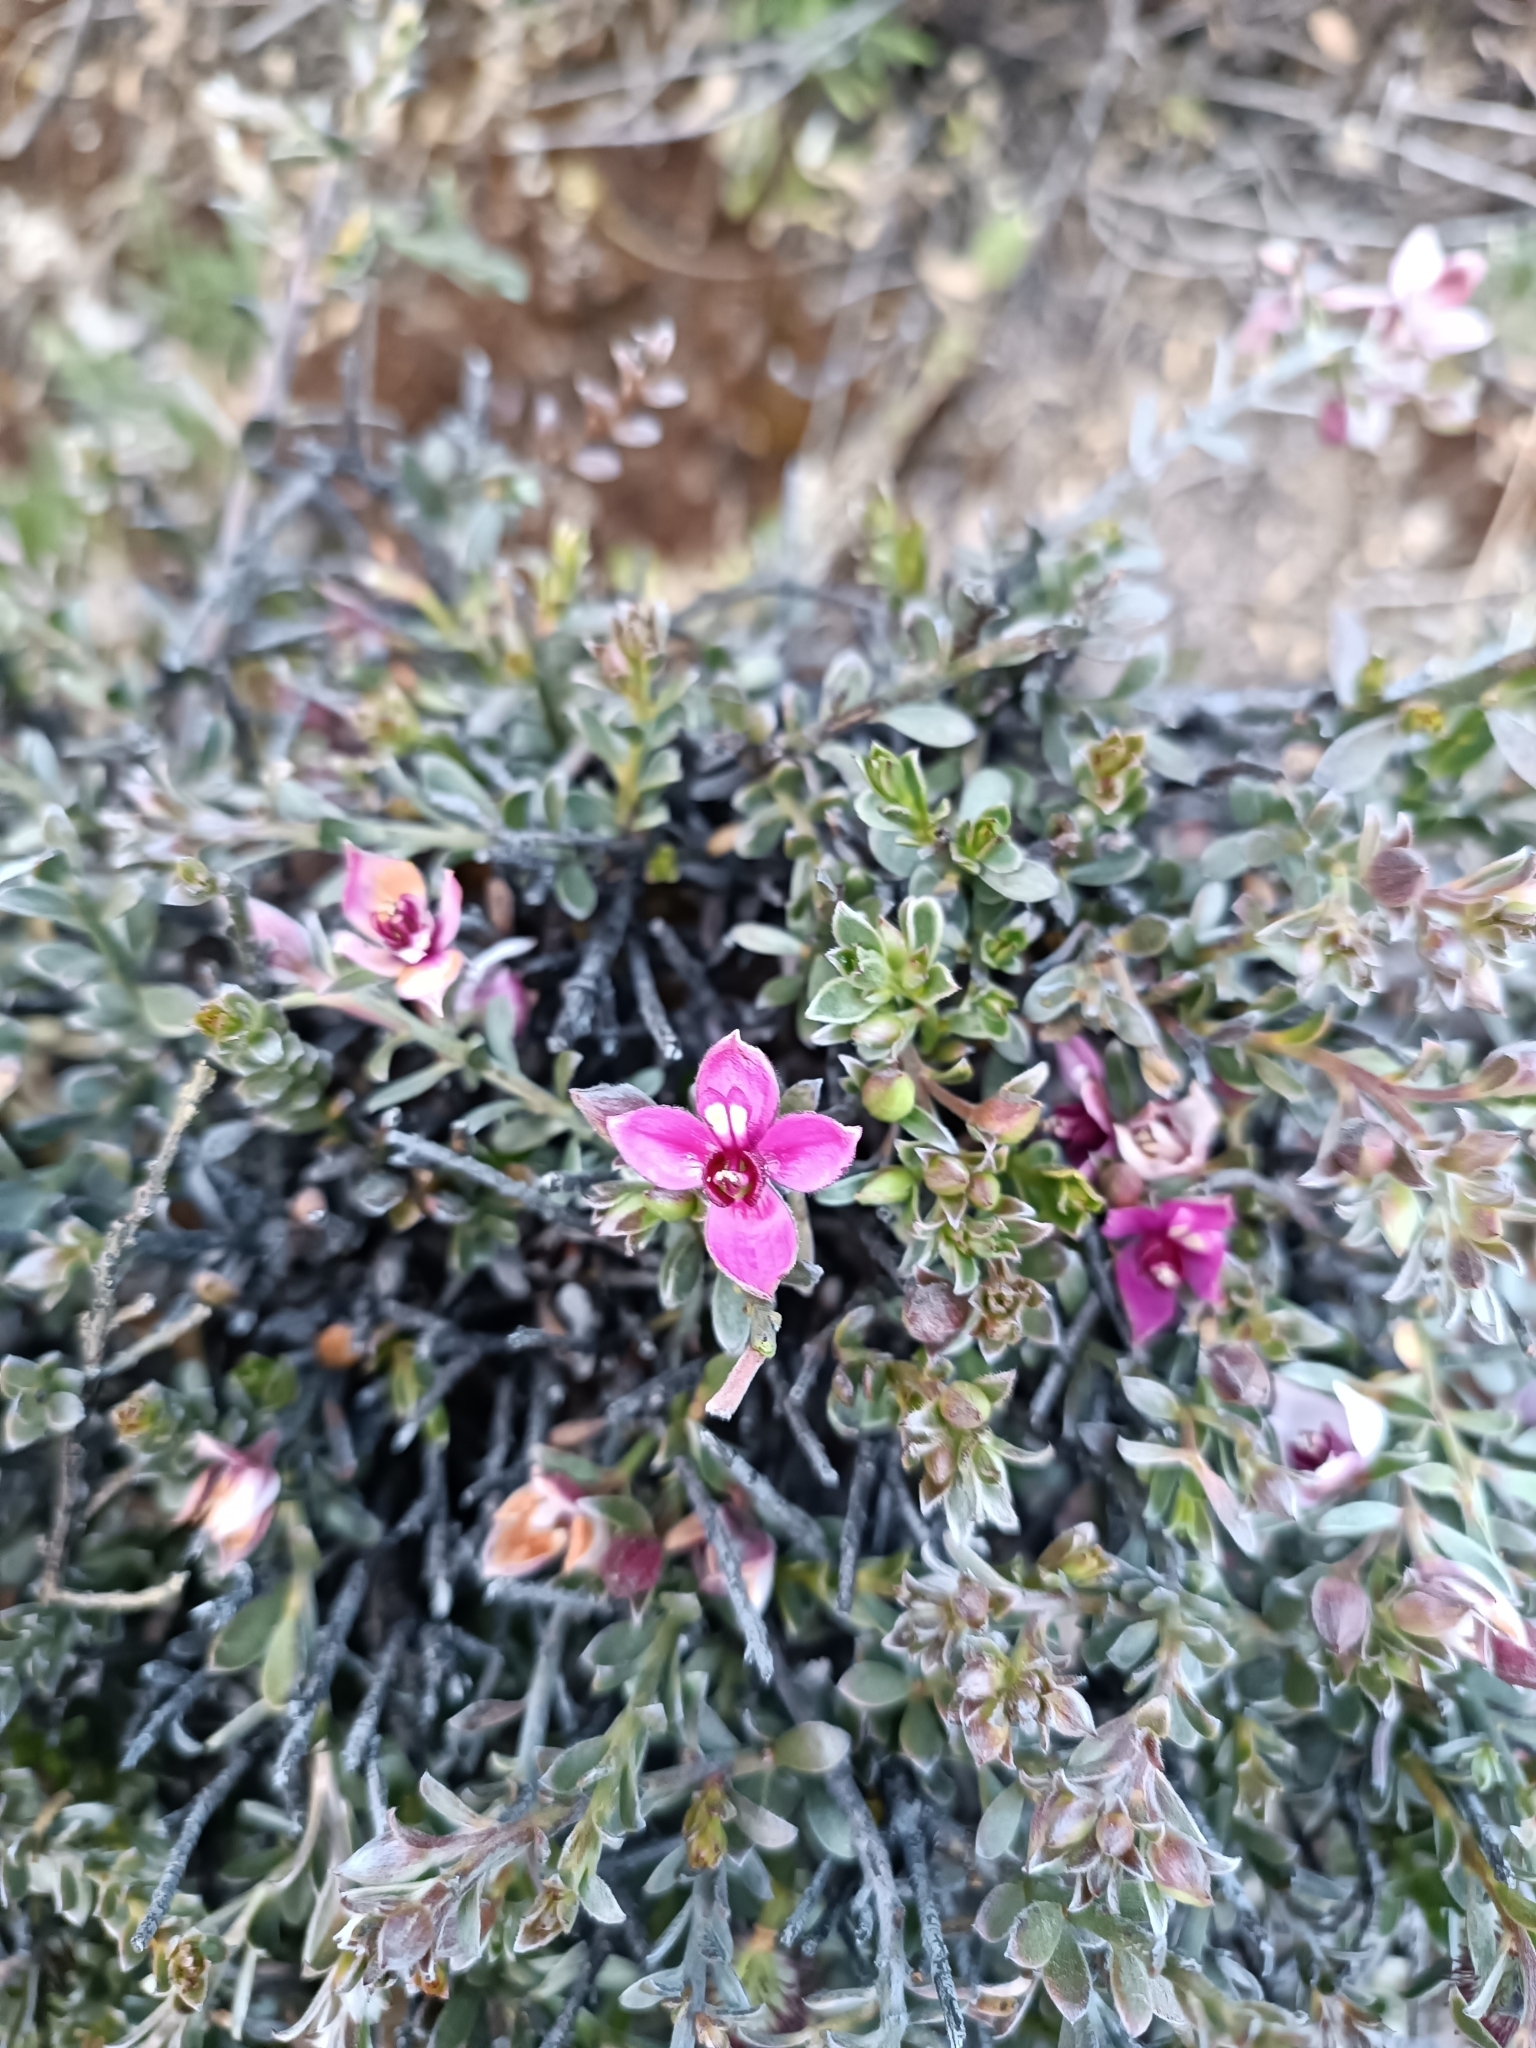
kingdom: Plantae
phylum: Tracheophyta
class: Magnoliopsida
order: Zygophyllales
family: Krameriaceae
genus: Krameria
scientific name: Krameria lappacea
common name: Rhatany
